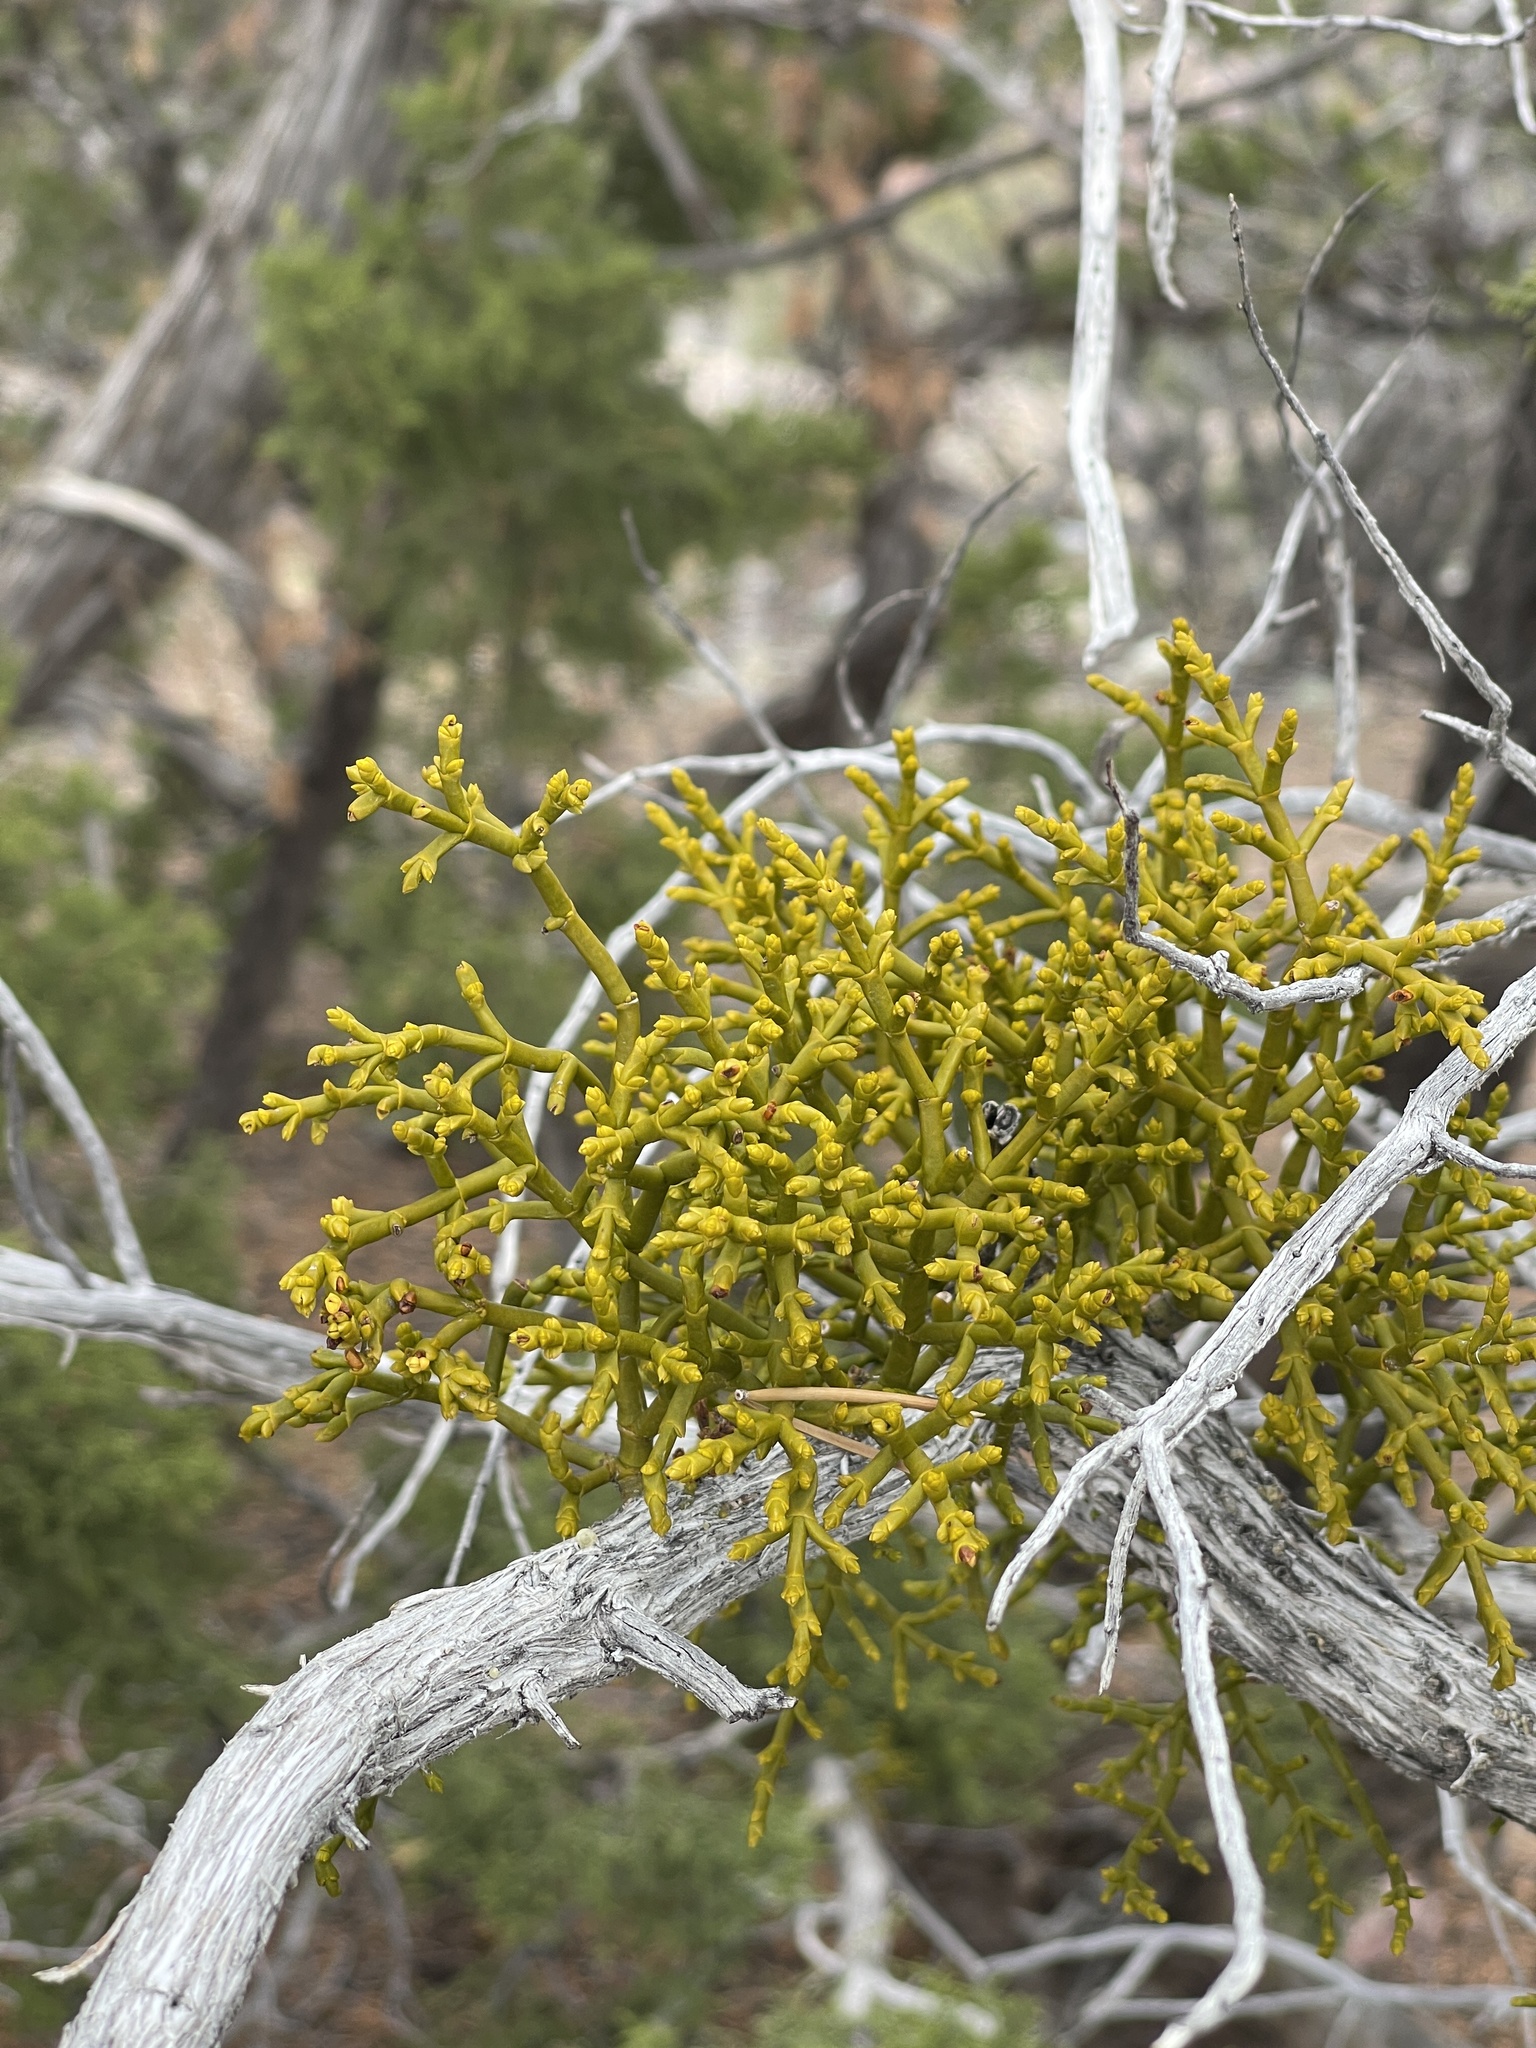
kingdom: Plantae
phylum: Tracheophyta
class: Magnoliopsida
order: Santalales
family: Viscaceae
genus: Phoradendron
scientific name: Phoradendron juniperinum
